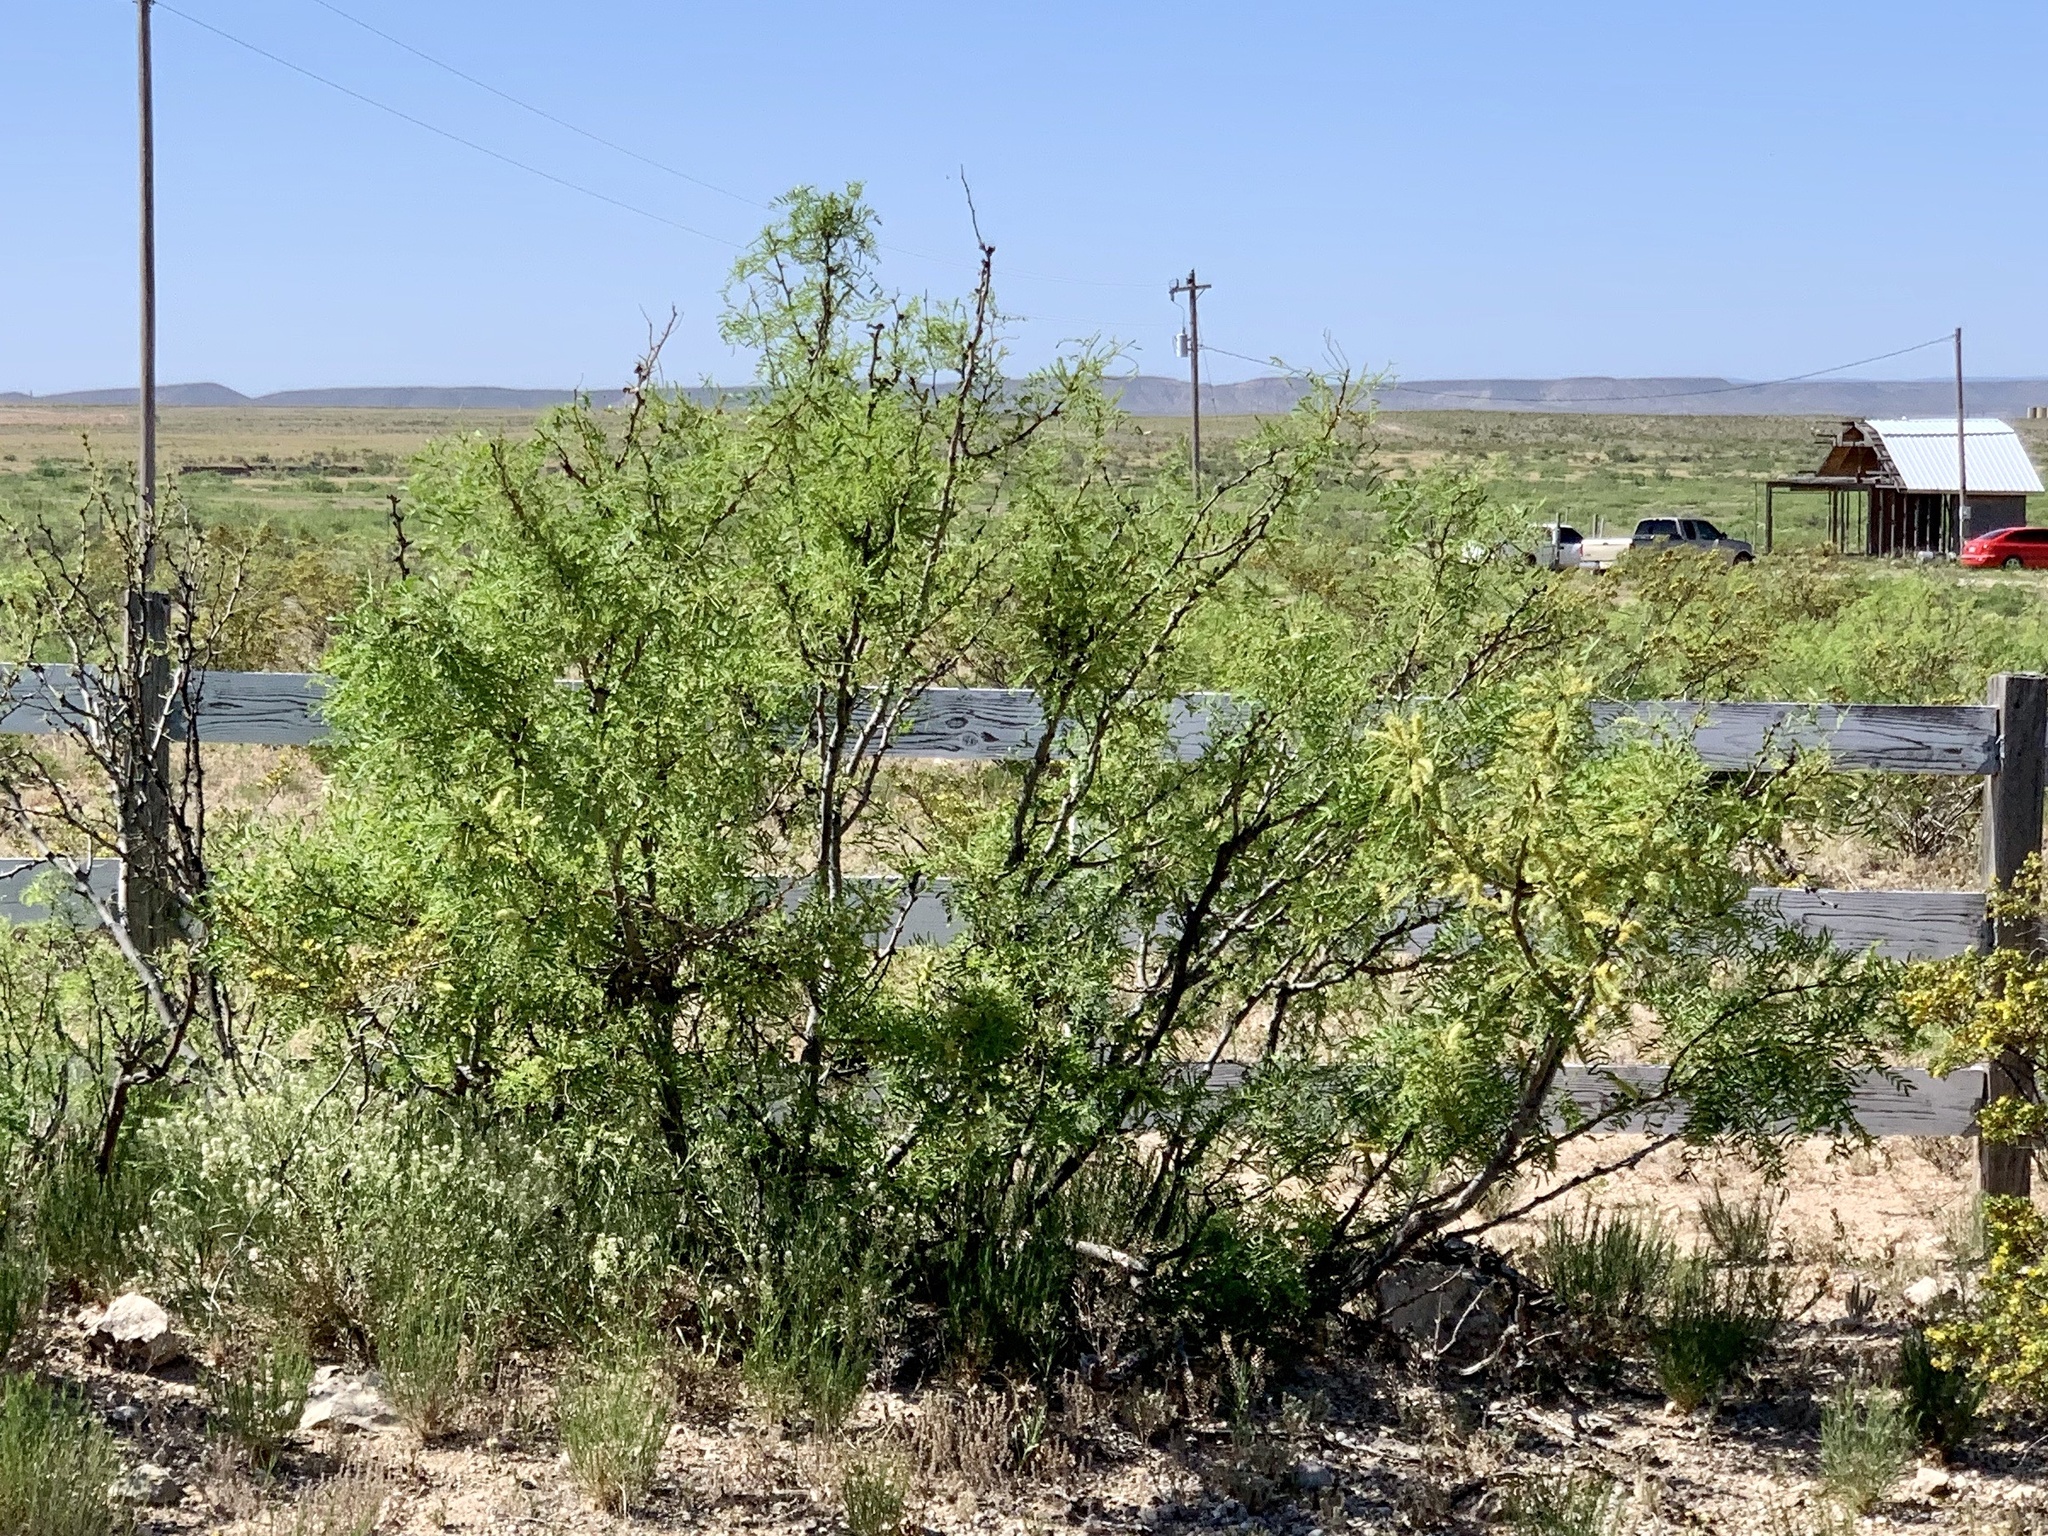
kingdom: Plantae
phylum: Tracheophyta
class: Magnoliopsida
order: Fabales
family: Fabaceae
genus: Prosopis
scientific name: Prosopis glandulosa
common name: Honey mesquite
